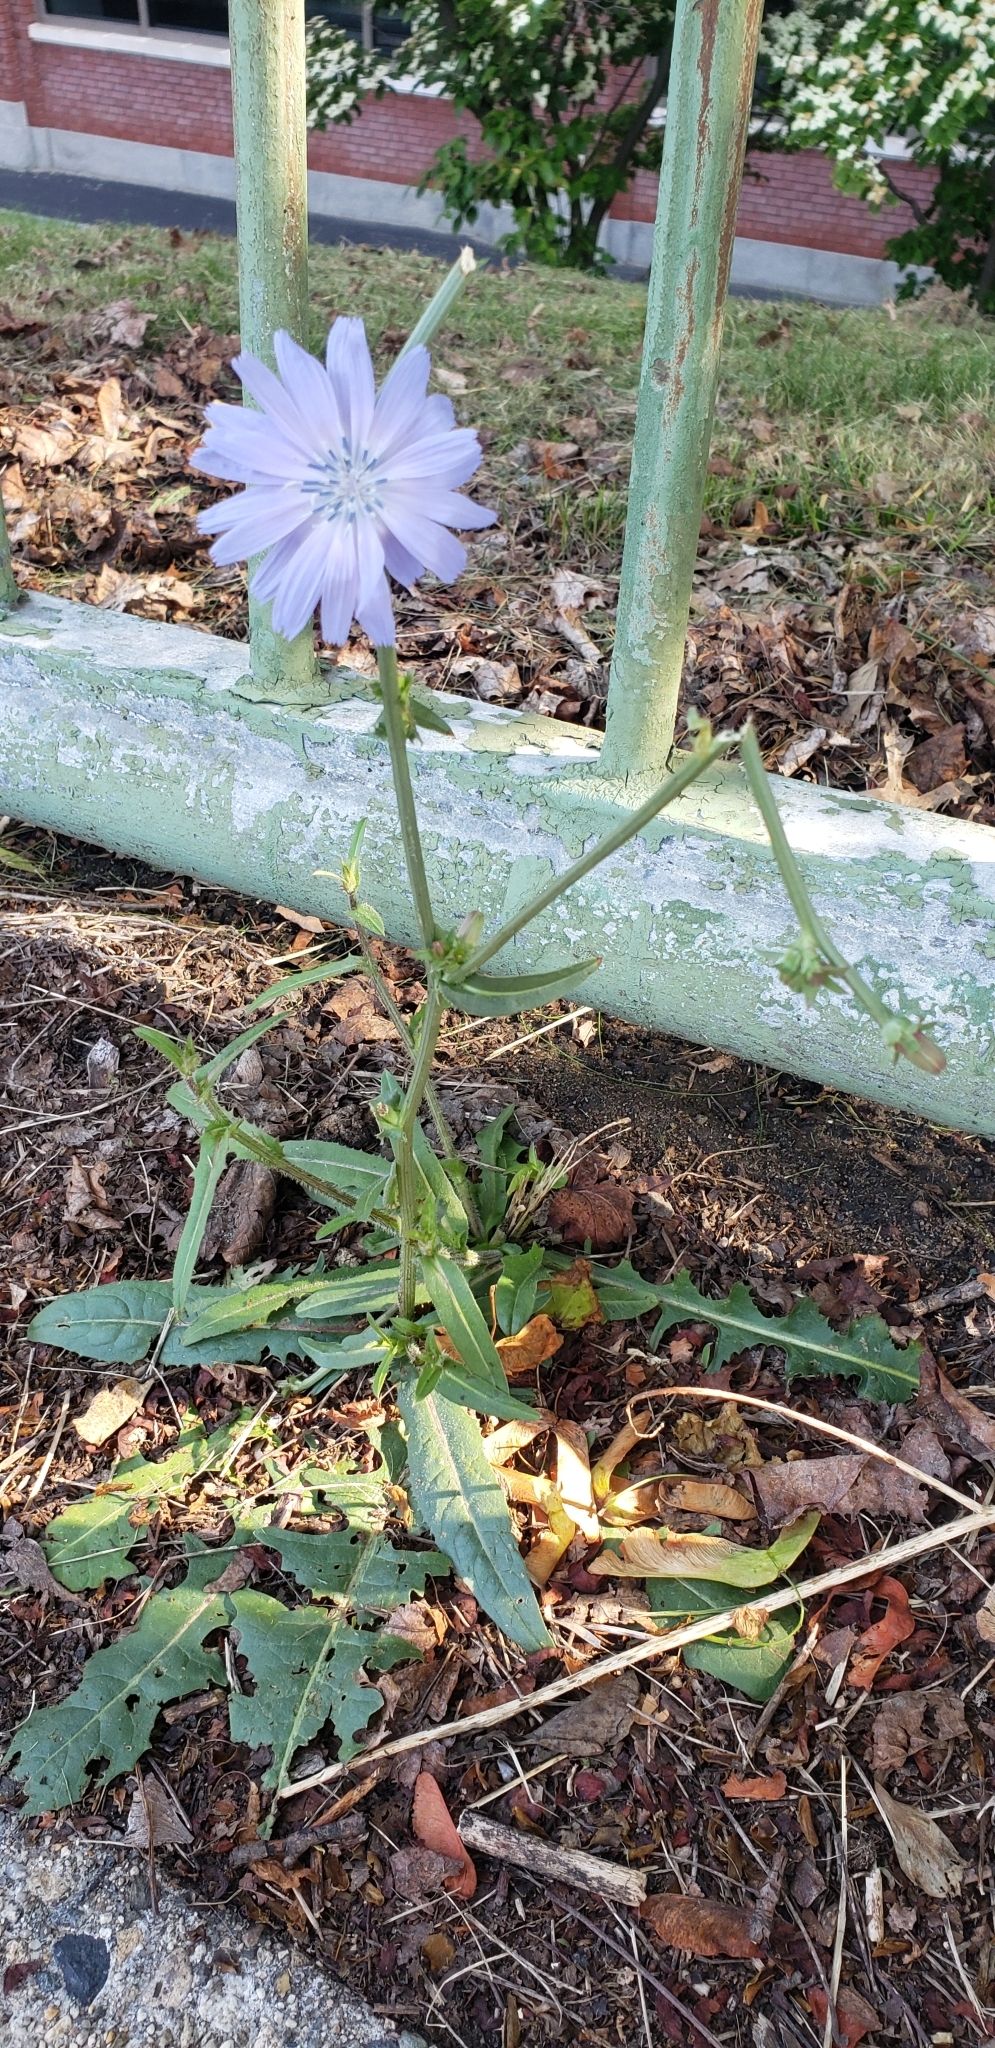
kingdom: Plantae
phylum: Tracheophyta
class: Magnoliopsida
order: Asterales
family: Asteraceae
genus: Cichorium
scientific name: Cichorium intybus
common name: Chicory
